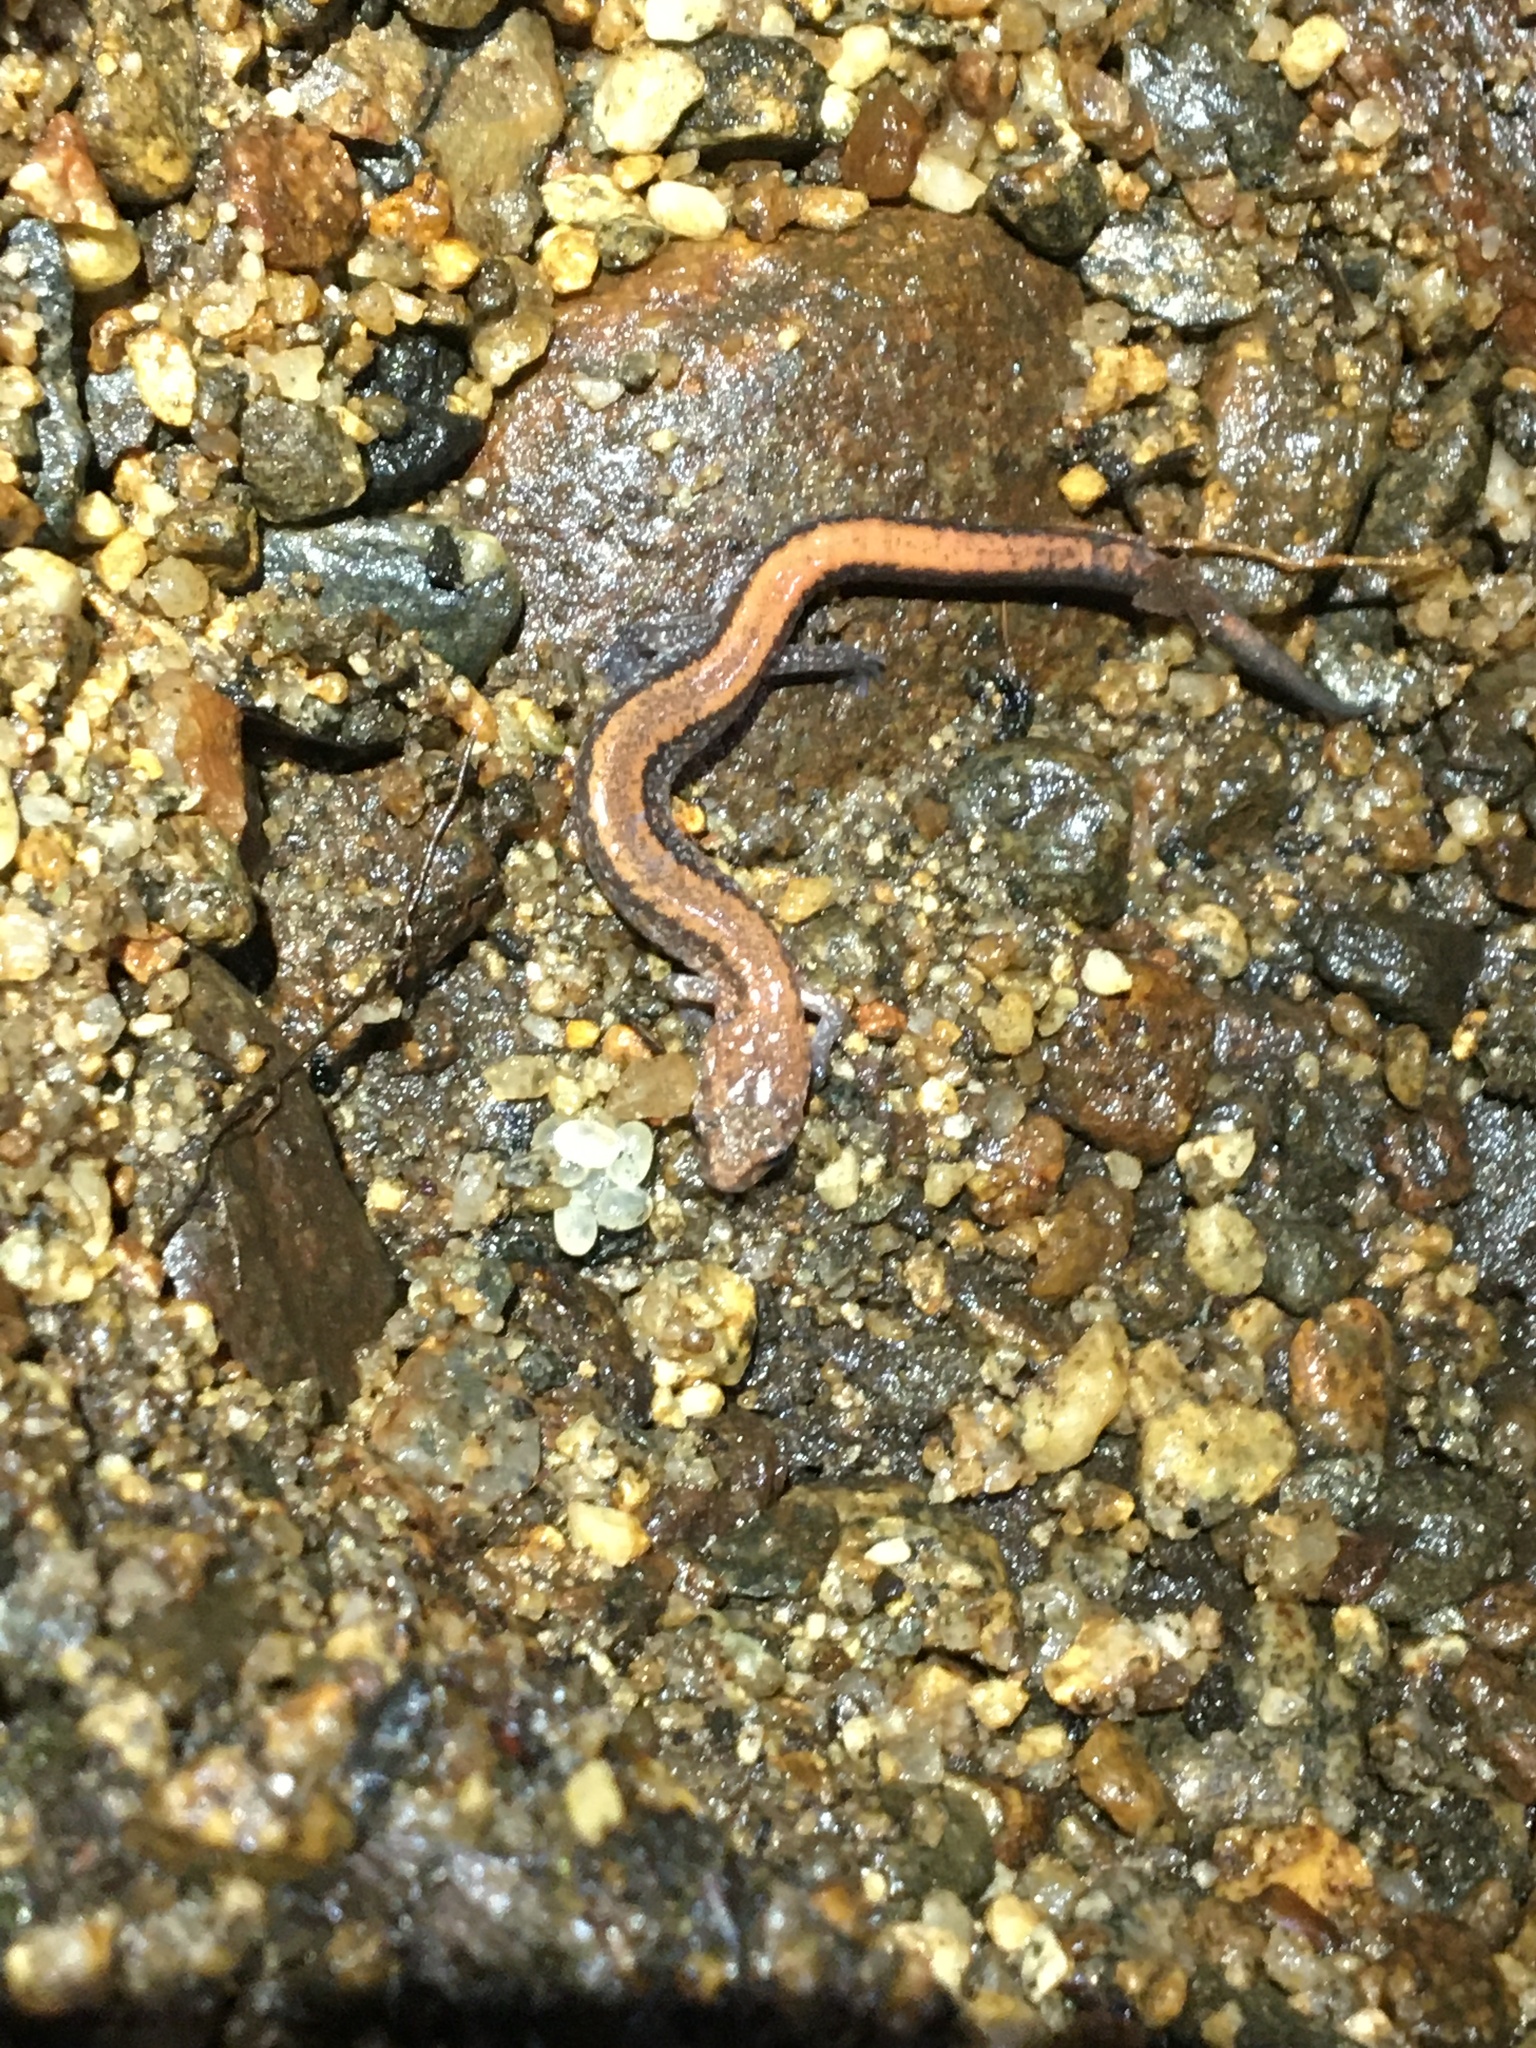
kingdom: Animalia
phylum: Chordata
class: Amphibia
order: Caudata
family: Plethodontidae
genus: Plethodon
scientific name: Plethodon cinereus
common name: Redback salamander
